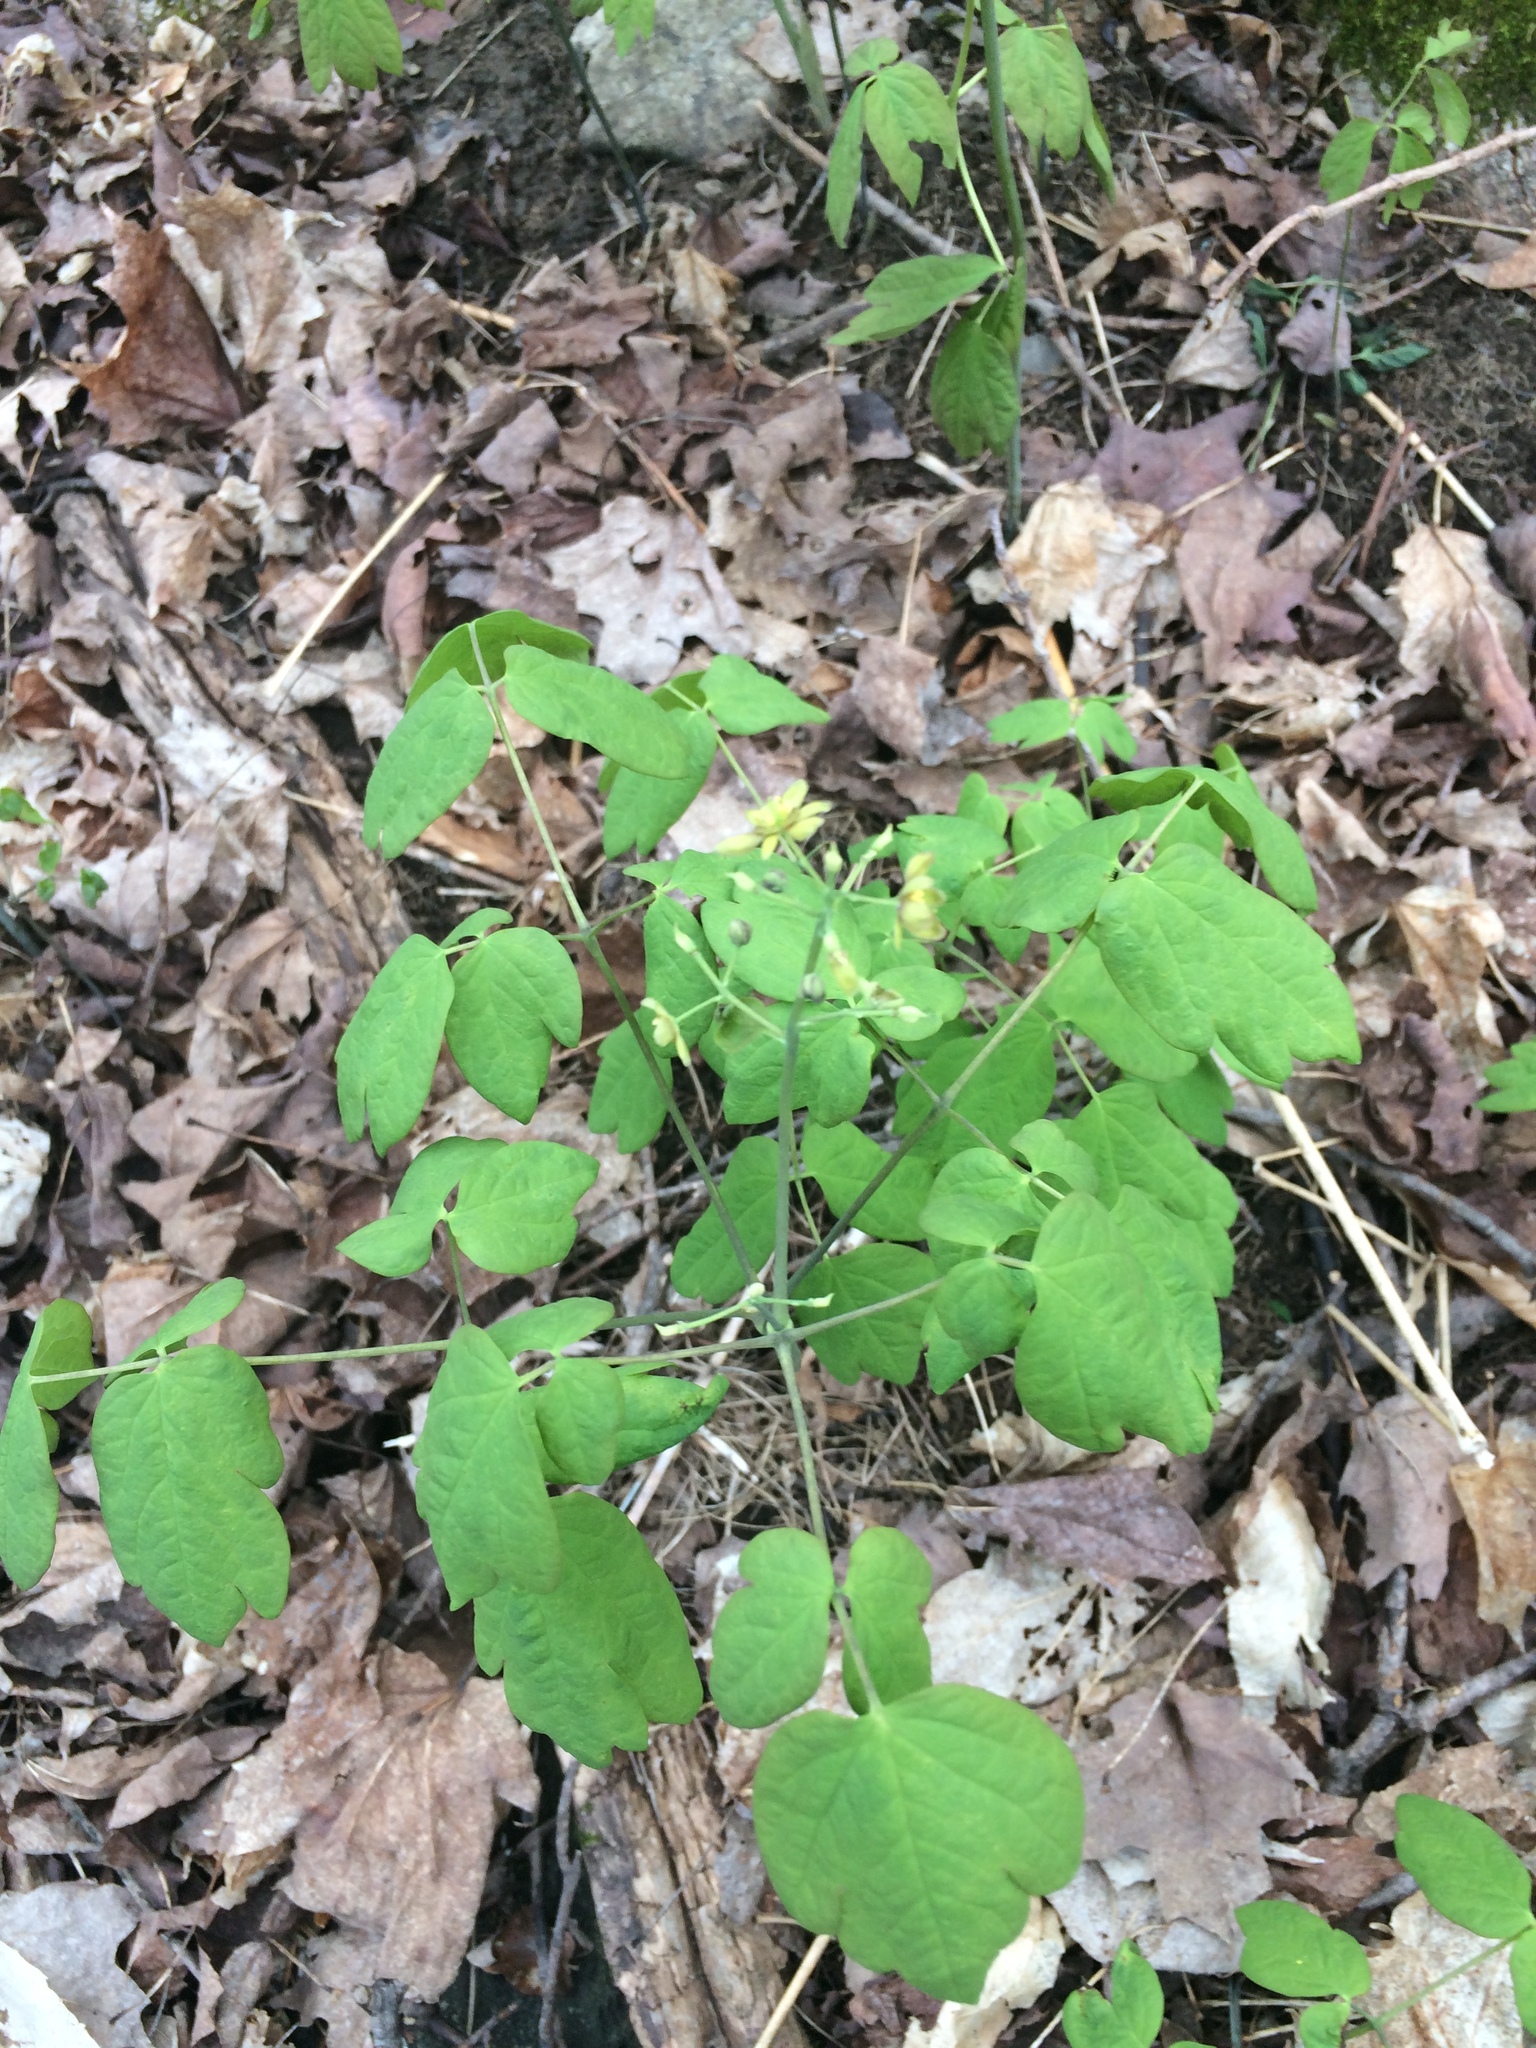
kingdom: Plantae
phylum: Tracheophyta
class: Magnoliopsida
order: Ranunculales
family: Berberidaceae
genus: Caulophyllum
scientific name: Caulophyllum
